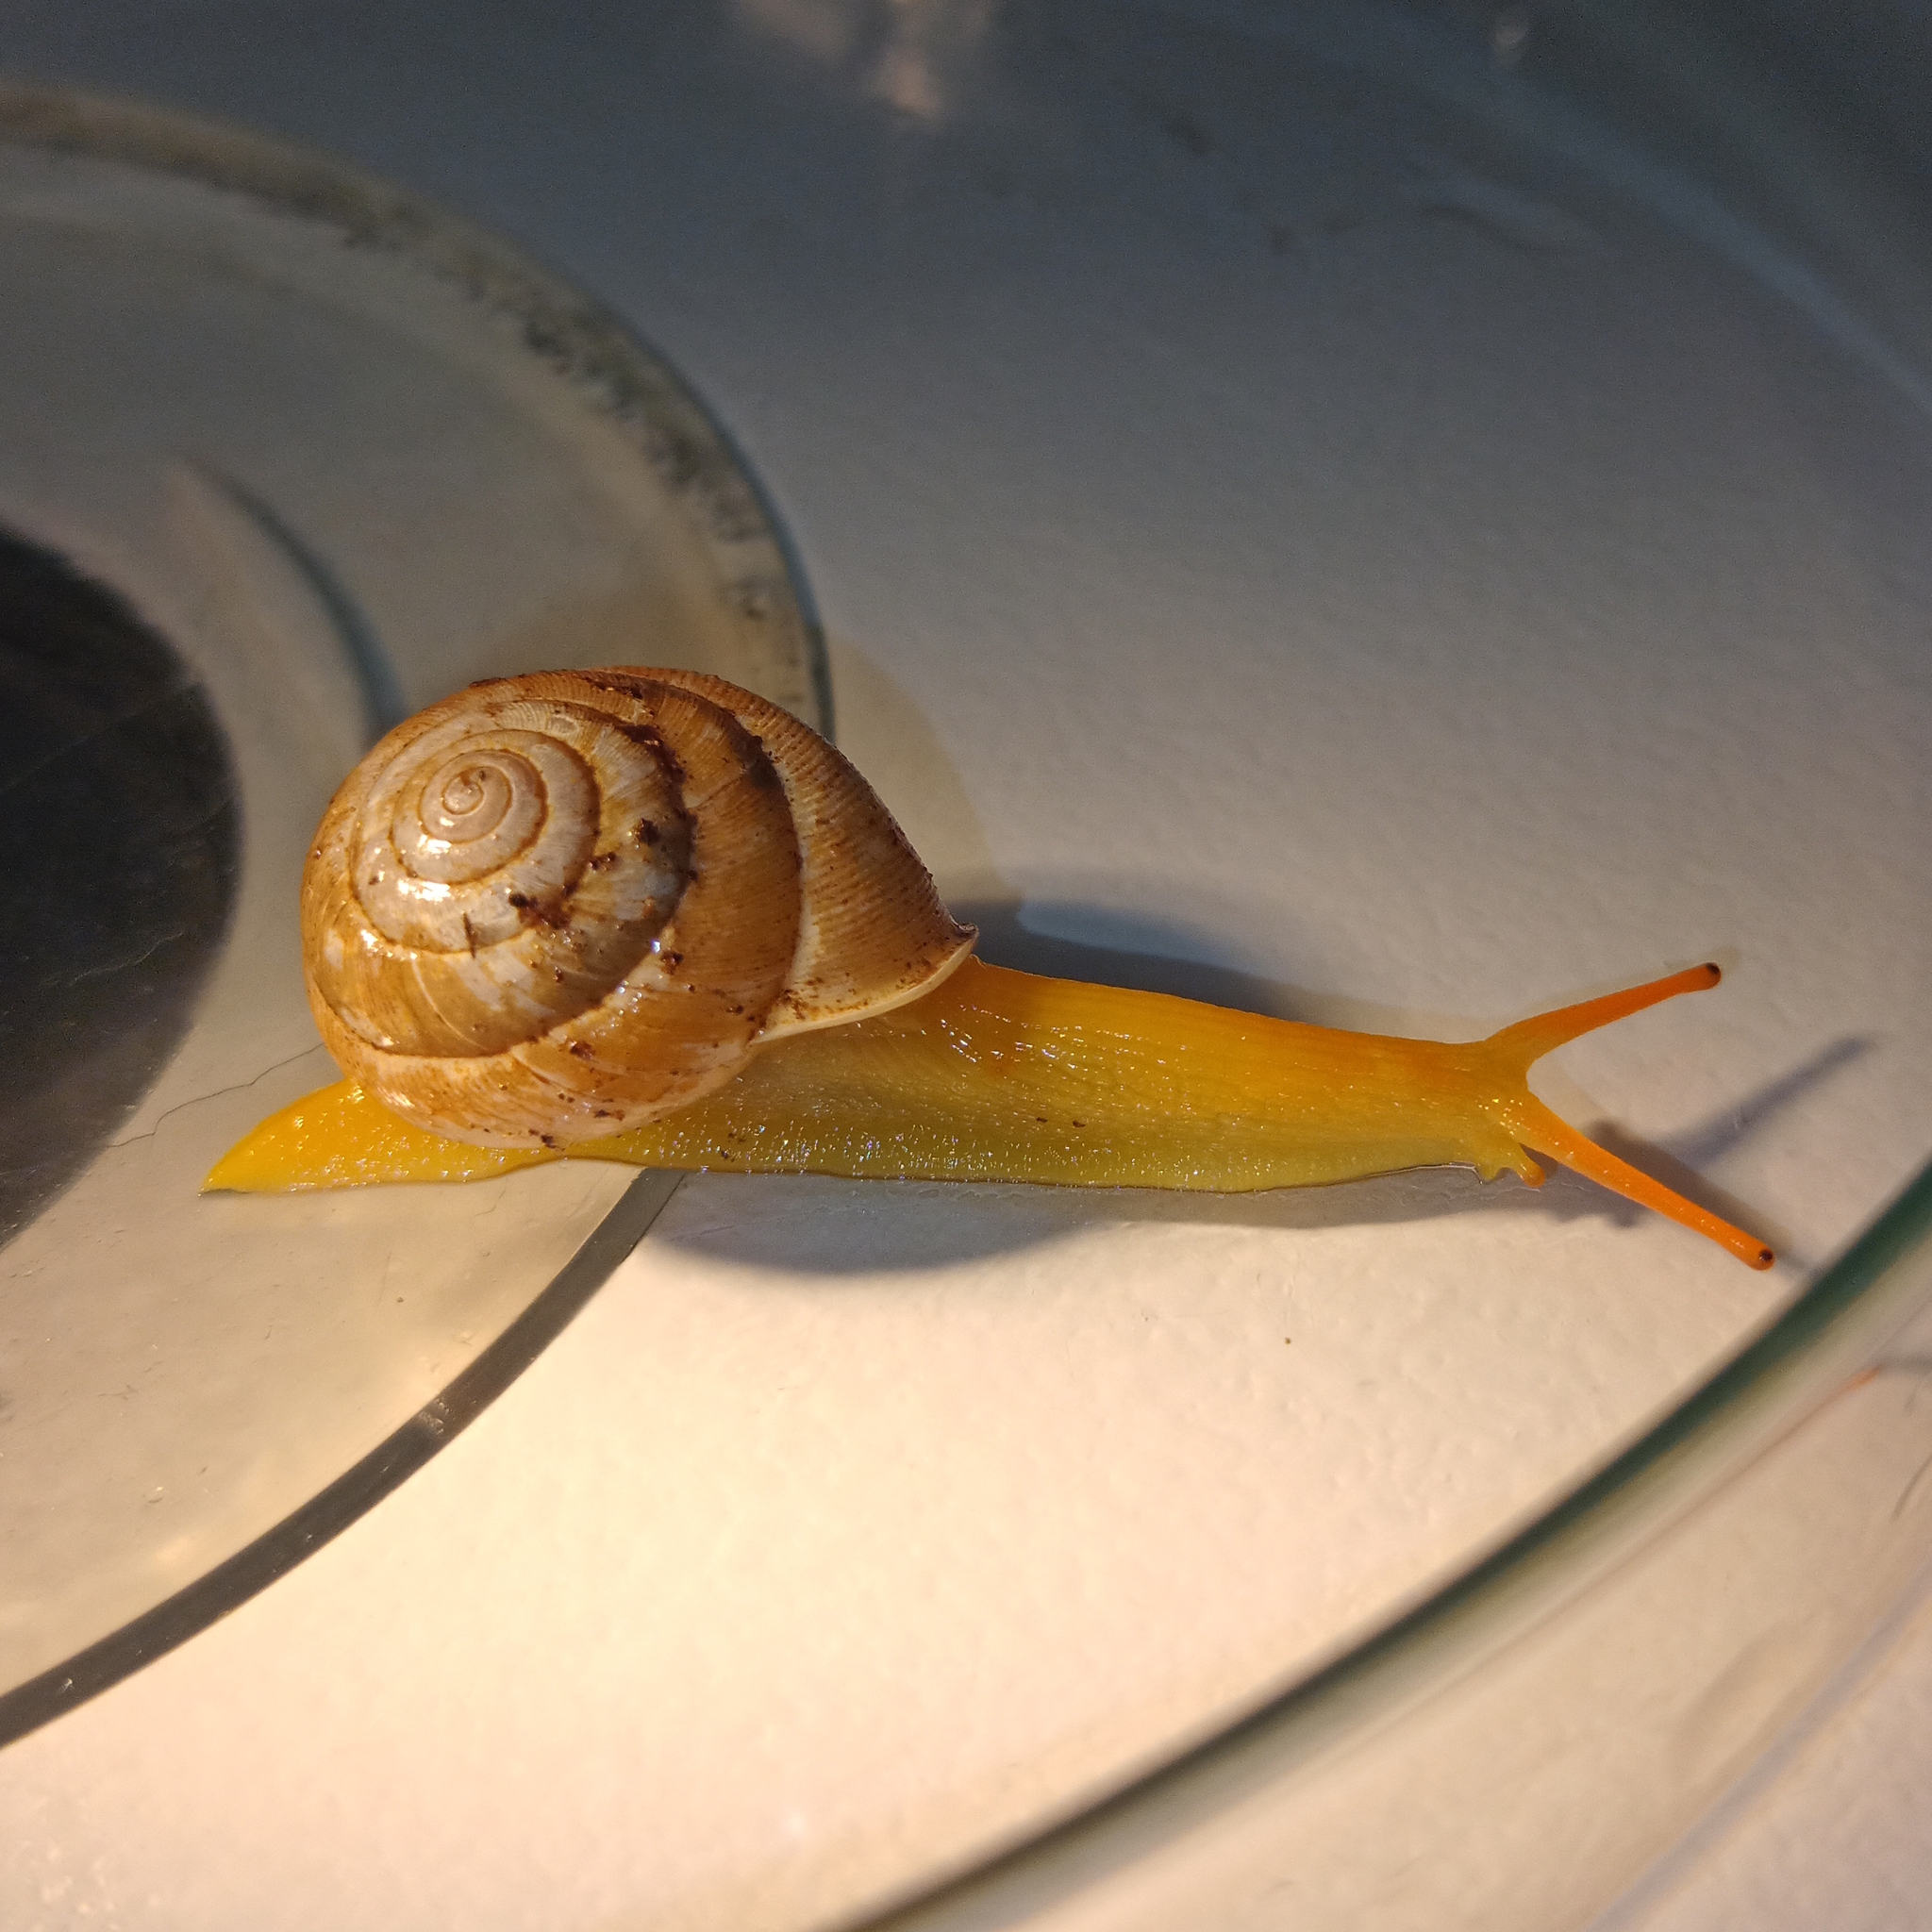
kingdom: Animalia
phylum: Mollusca
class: Gastropoda
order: Stylommatophora
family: Streptaxidae
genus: Streptaxis
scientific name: Streptaxis saopaulensis
